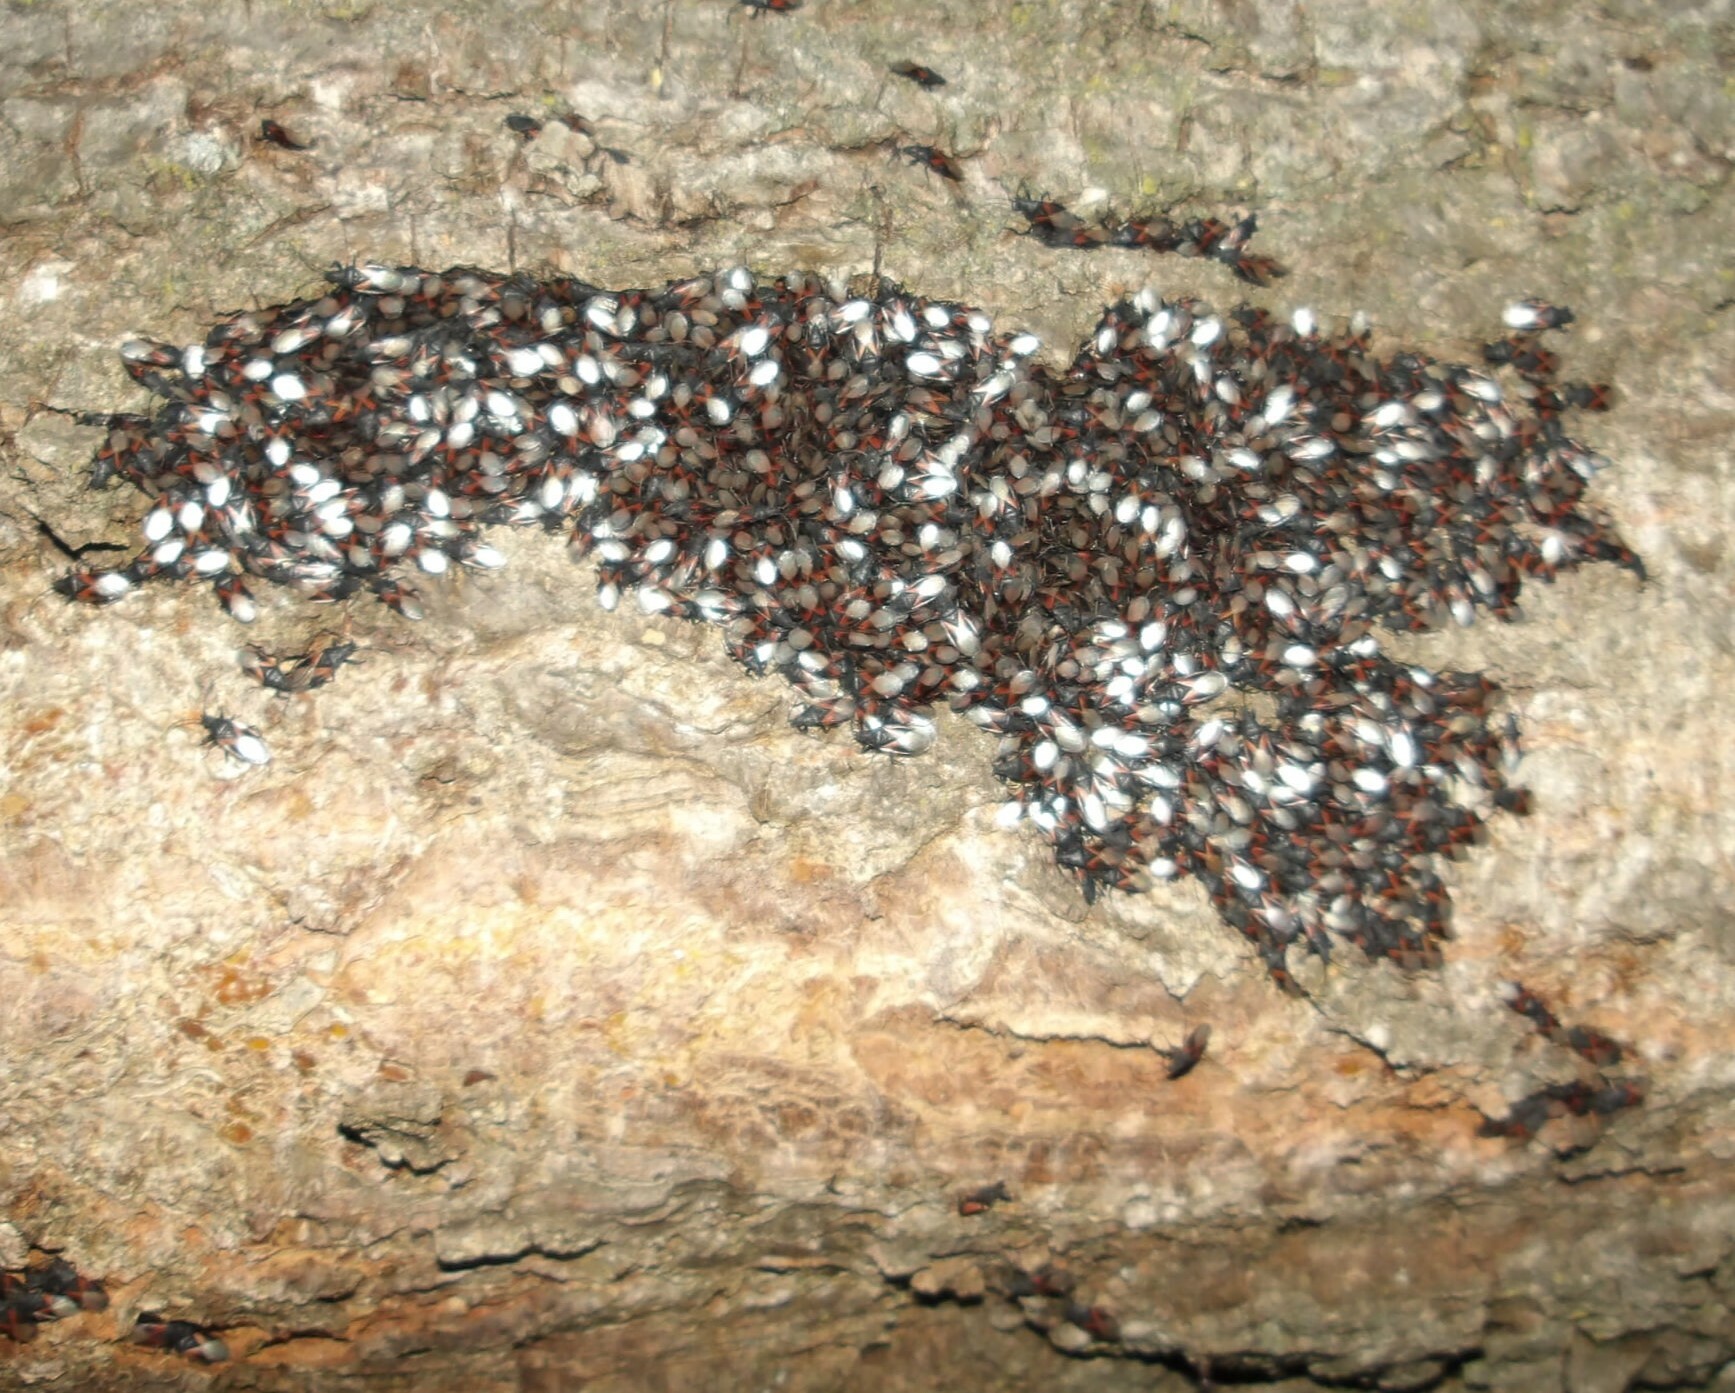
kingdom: Animalia
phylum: Arthropoda
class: Insecta
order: Hemiptera
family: Oxycarenidae
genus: Oxycarenus
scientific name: Oxycarenus lavaterae
